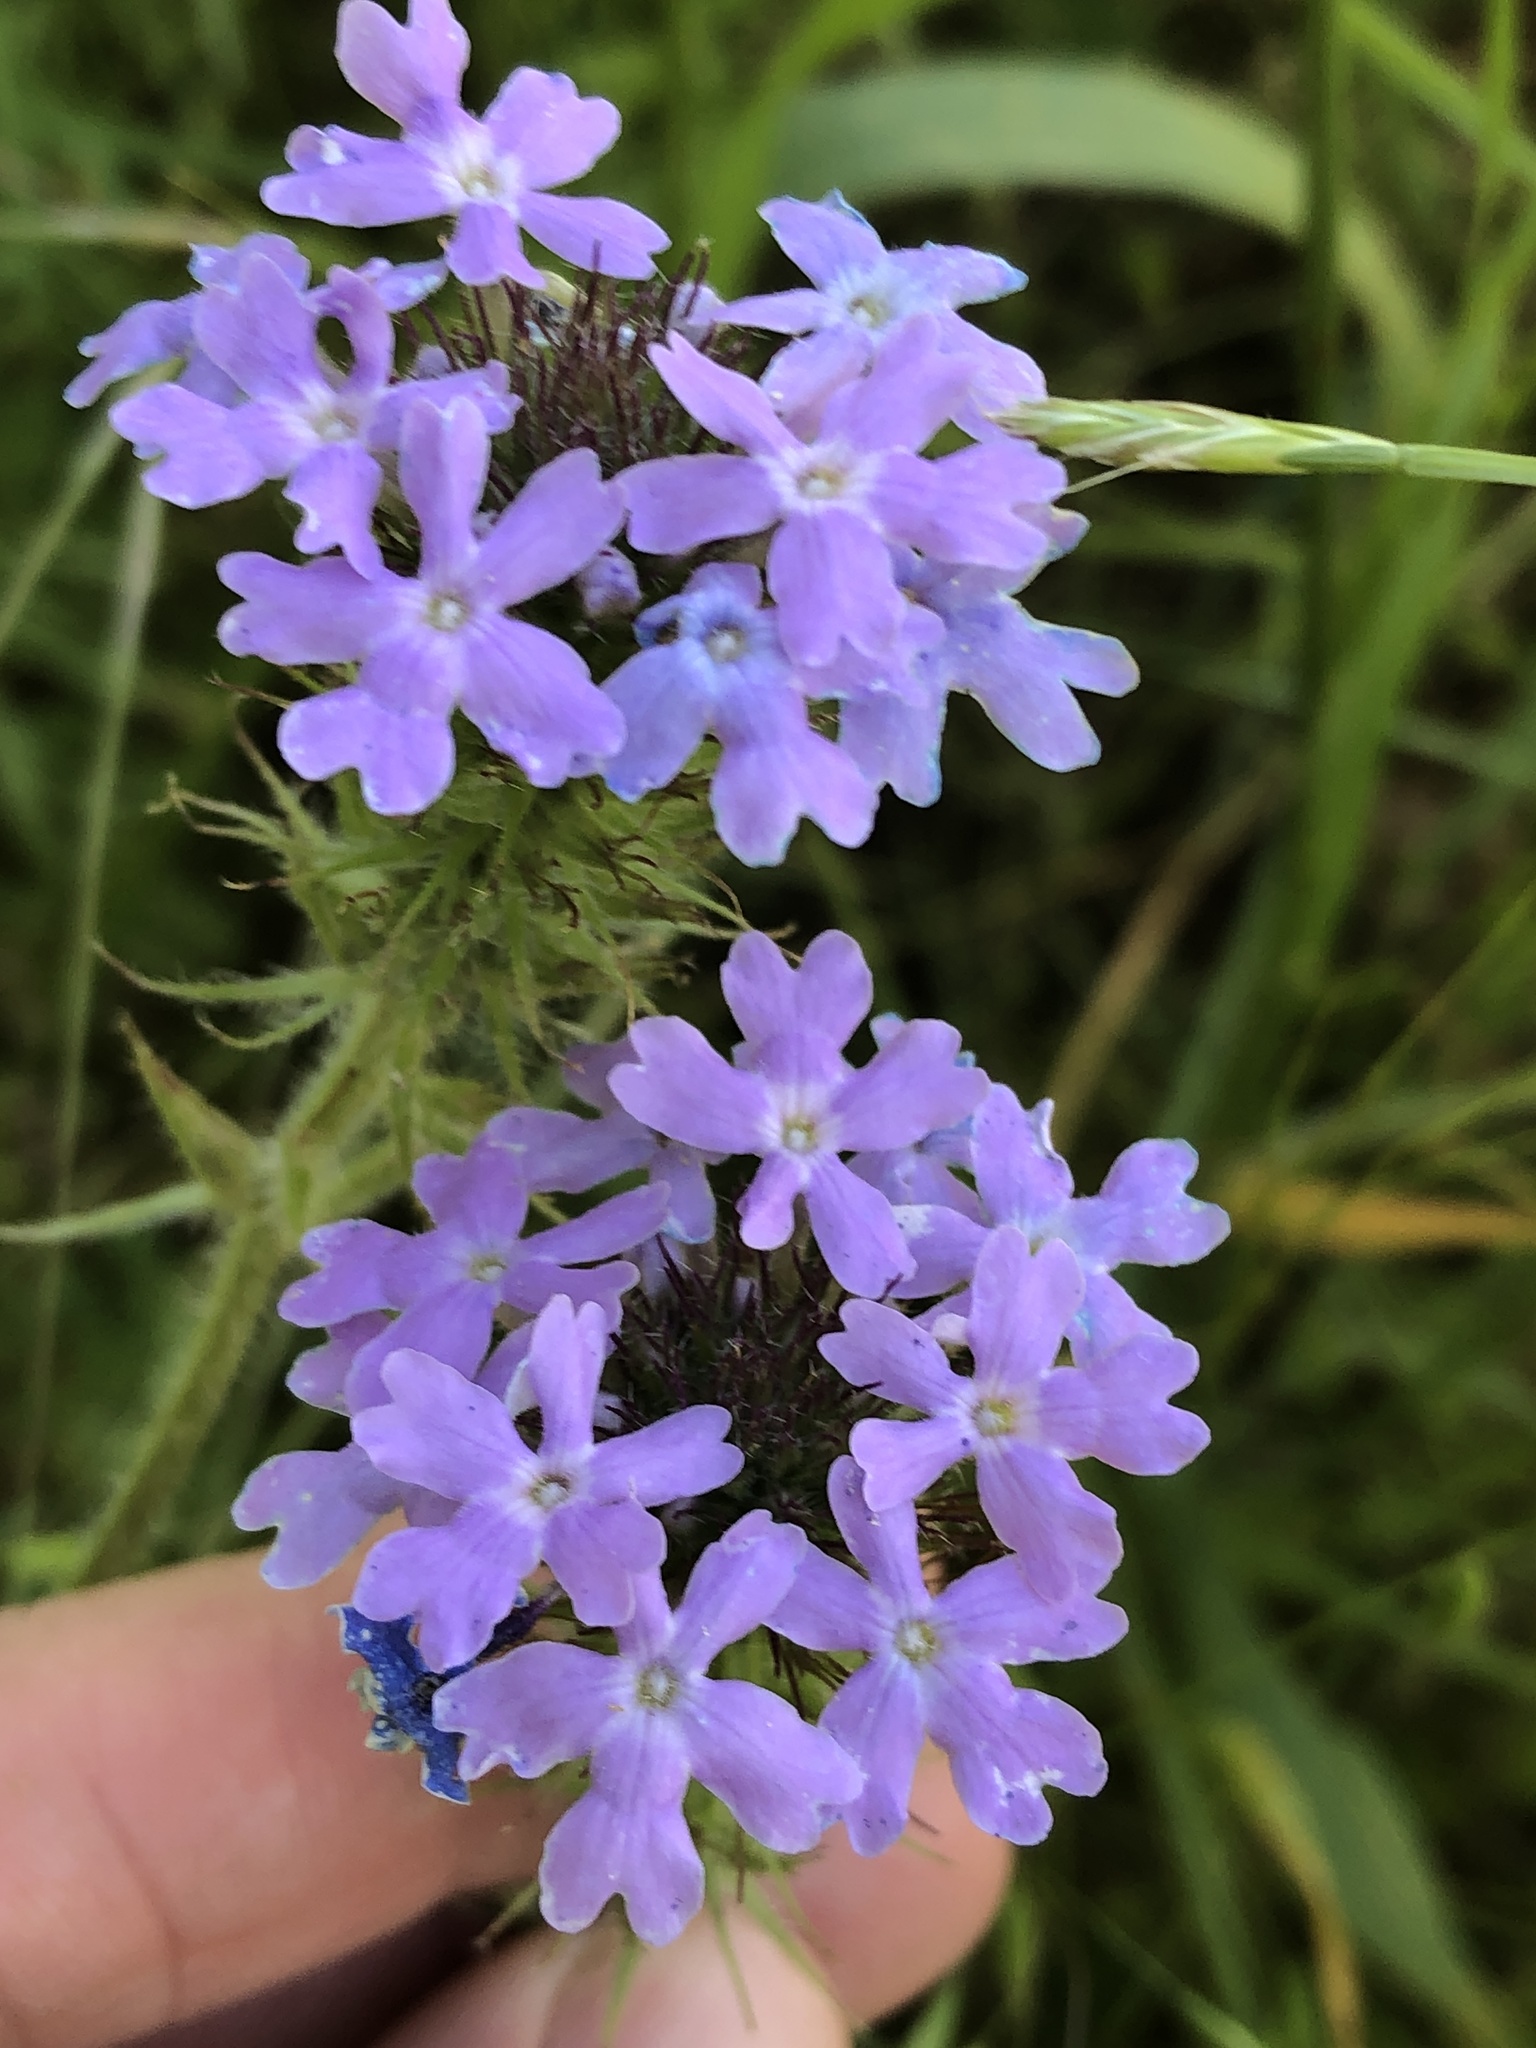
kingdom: Plantae
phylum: Tracheophyta
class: Magnoliopsida
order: Lamiales
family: Verbenaceae
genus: Verbena
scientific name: Verbena bipinnatifida
